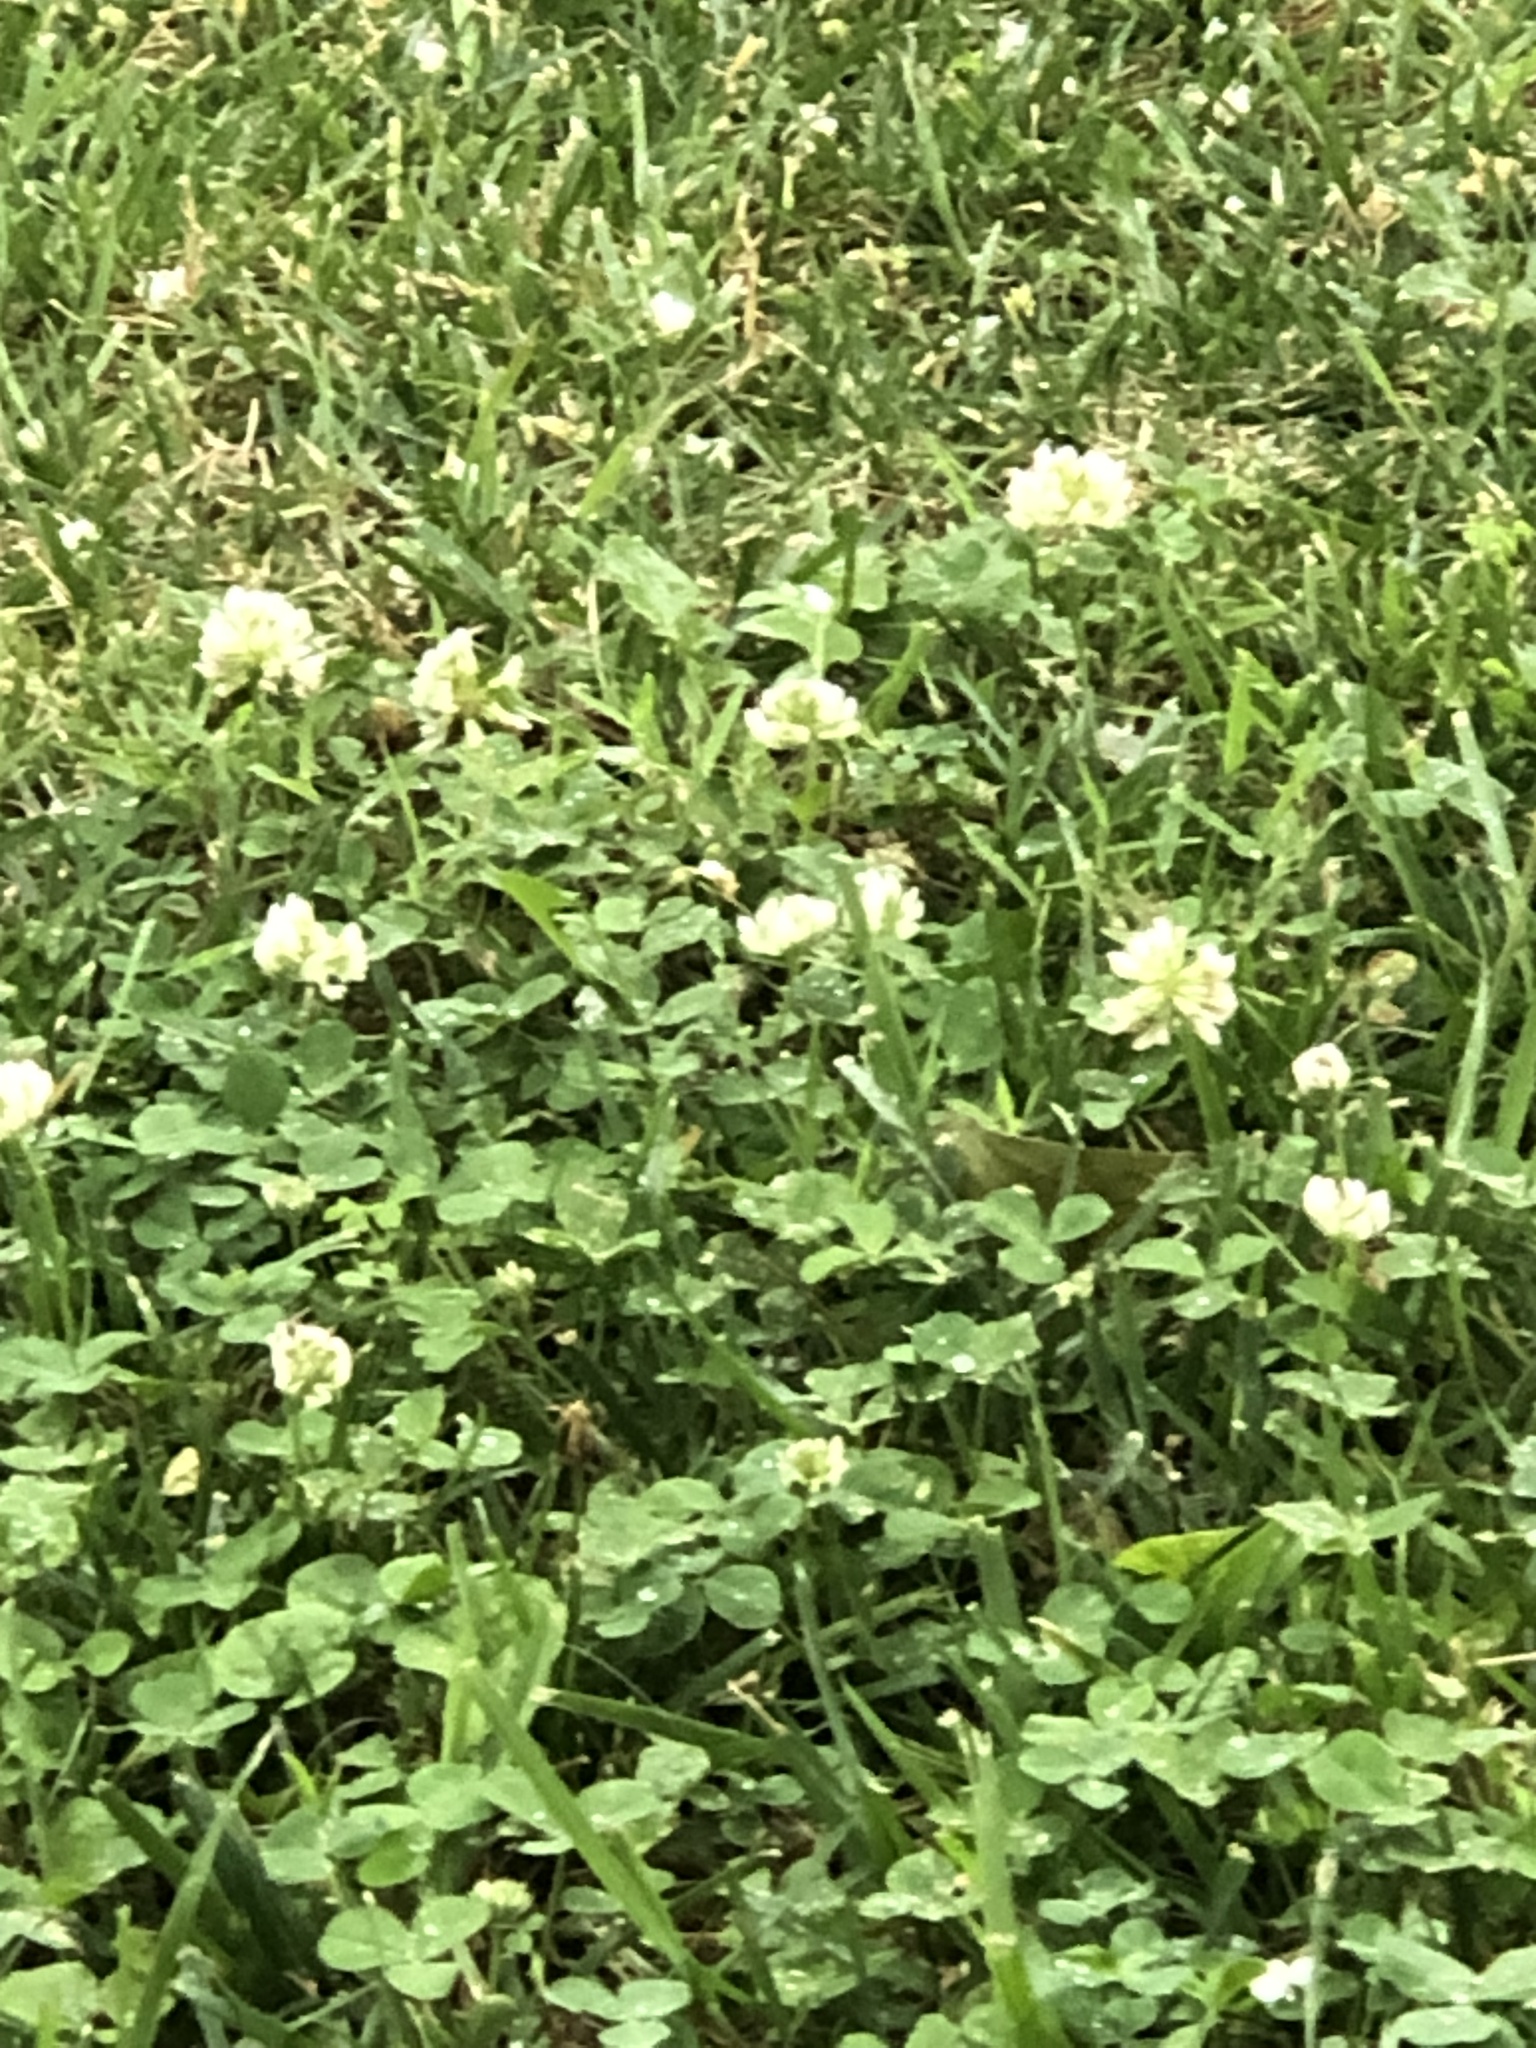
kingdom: Plantae
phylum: Tracheophyta
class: Magnoliopsida
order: Fabales
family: Fabaceae
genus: Trifolium
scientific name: Trifolium repens
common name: White clover
